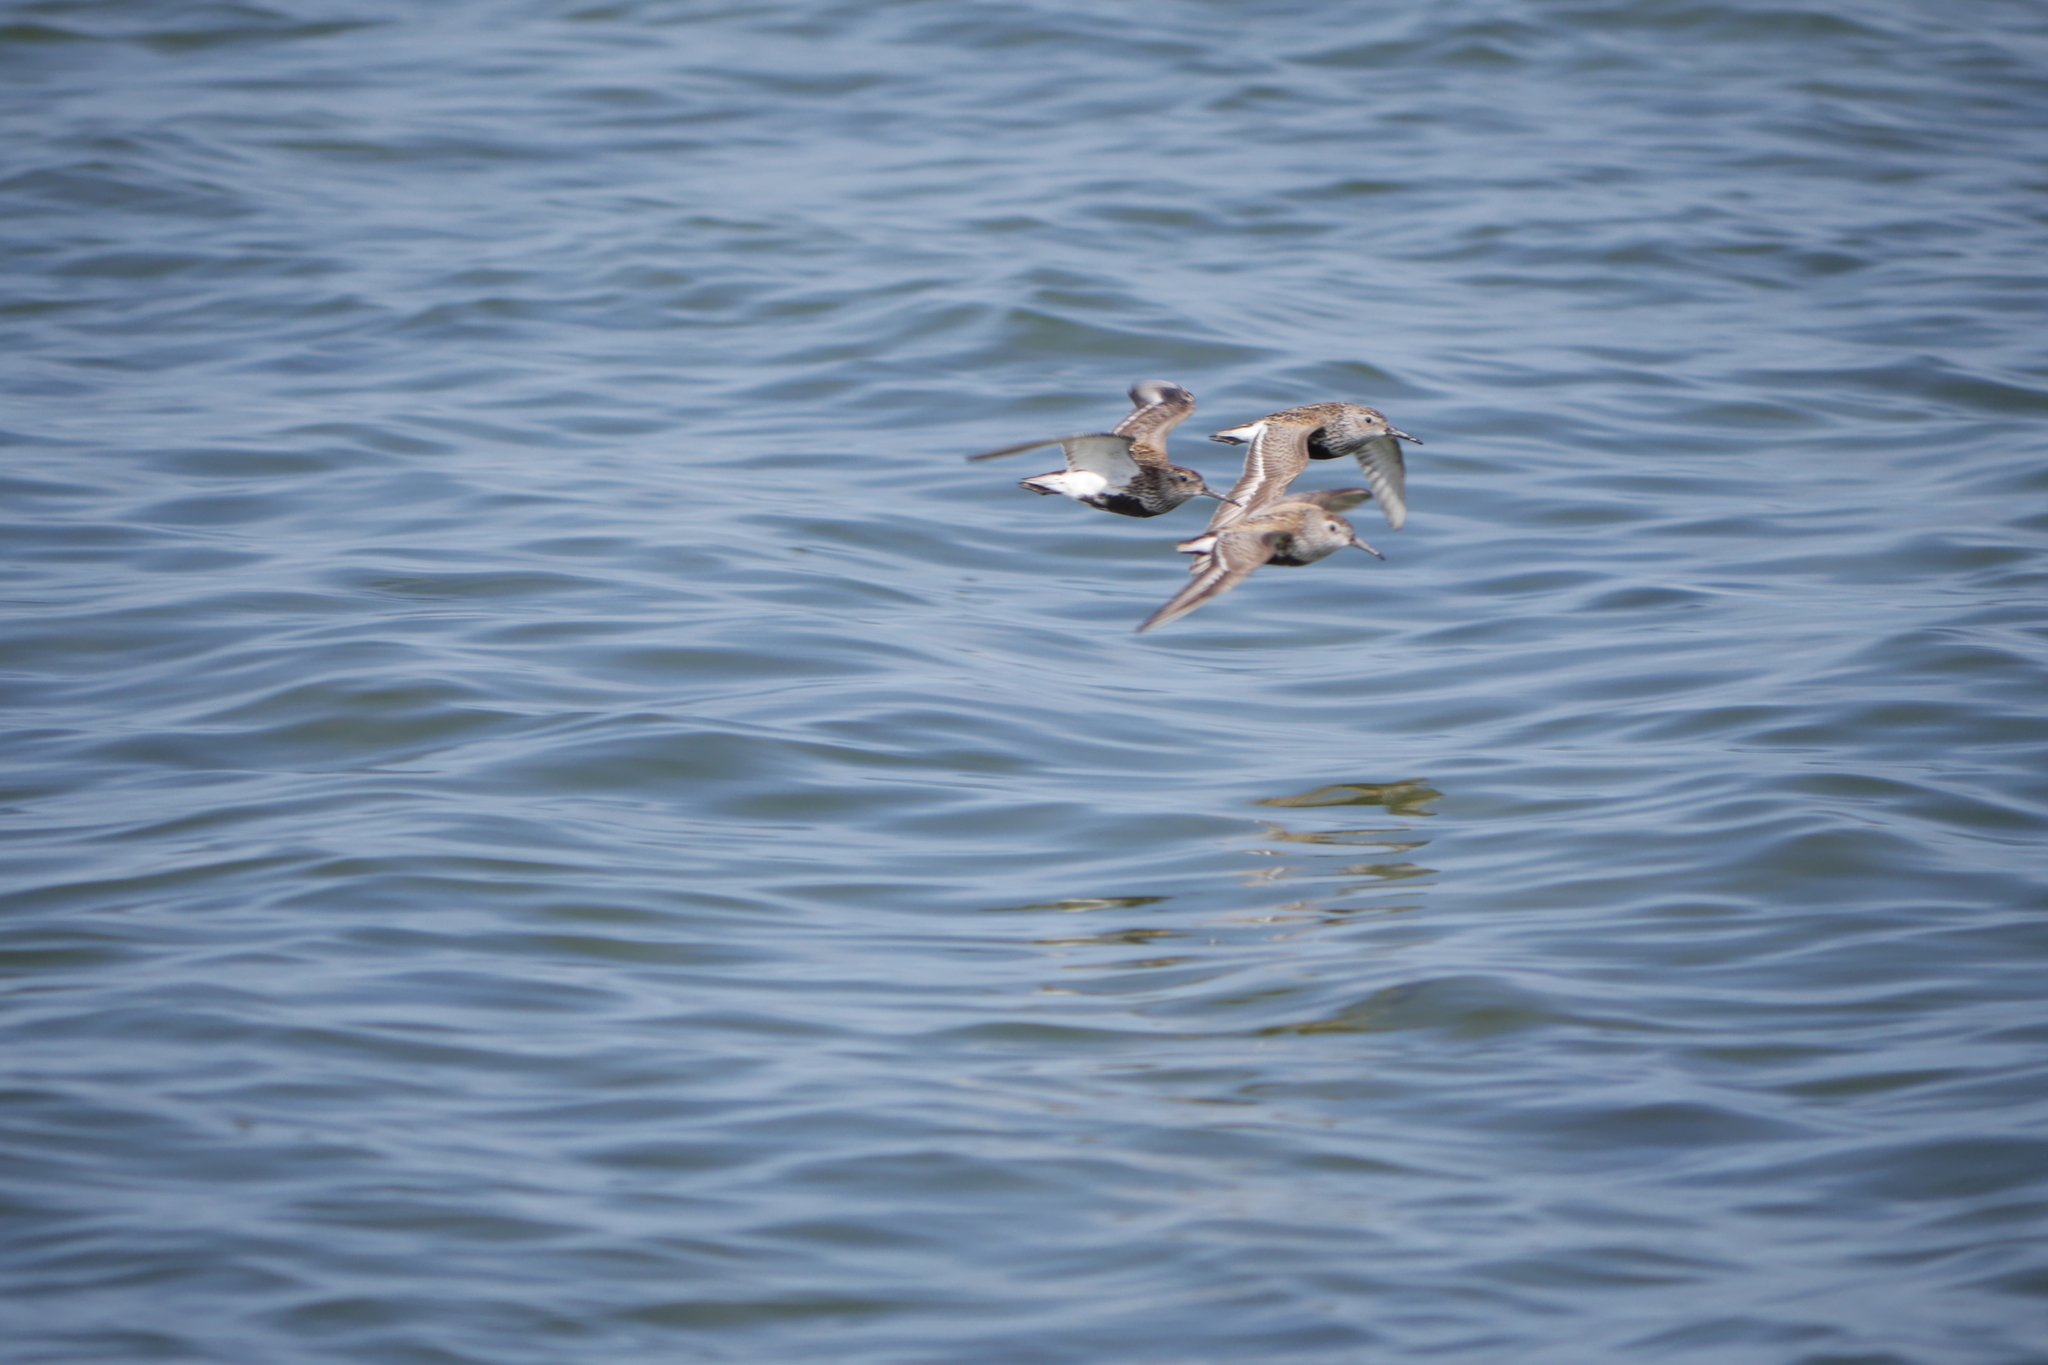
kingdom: Animalia
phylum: Chordata
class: Aves
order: Charadriiformes
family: Scolopacidae
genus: Calidris
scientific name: Calidris alpina
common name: Dunlin
